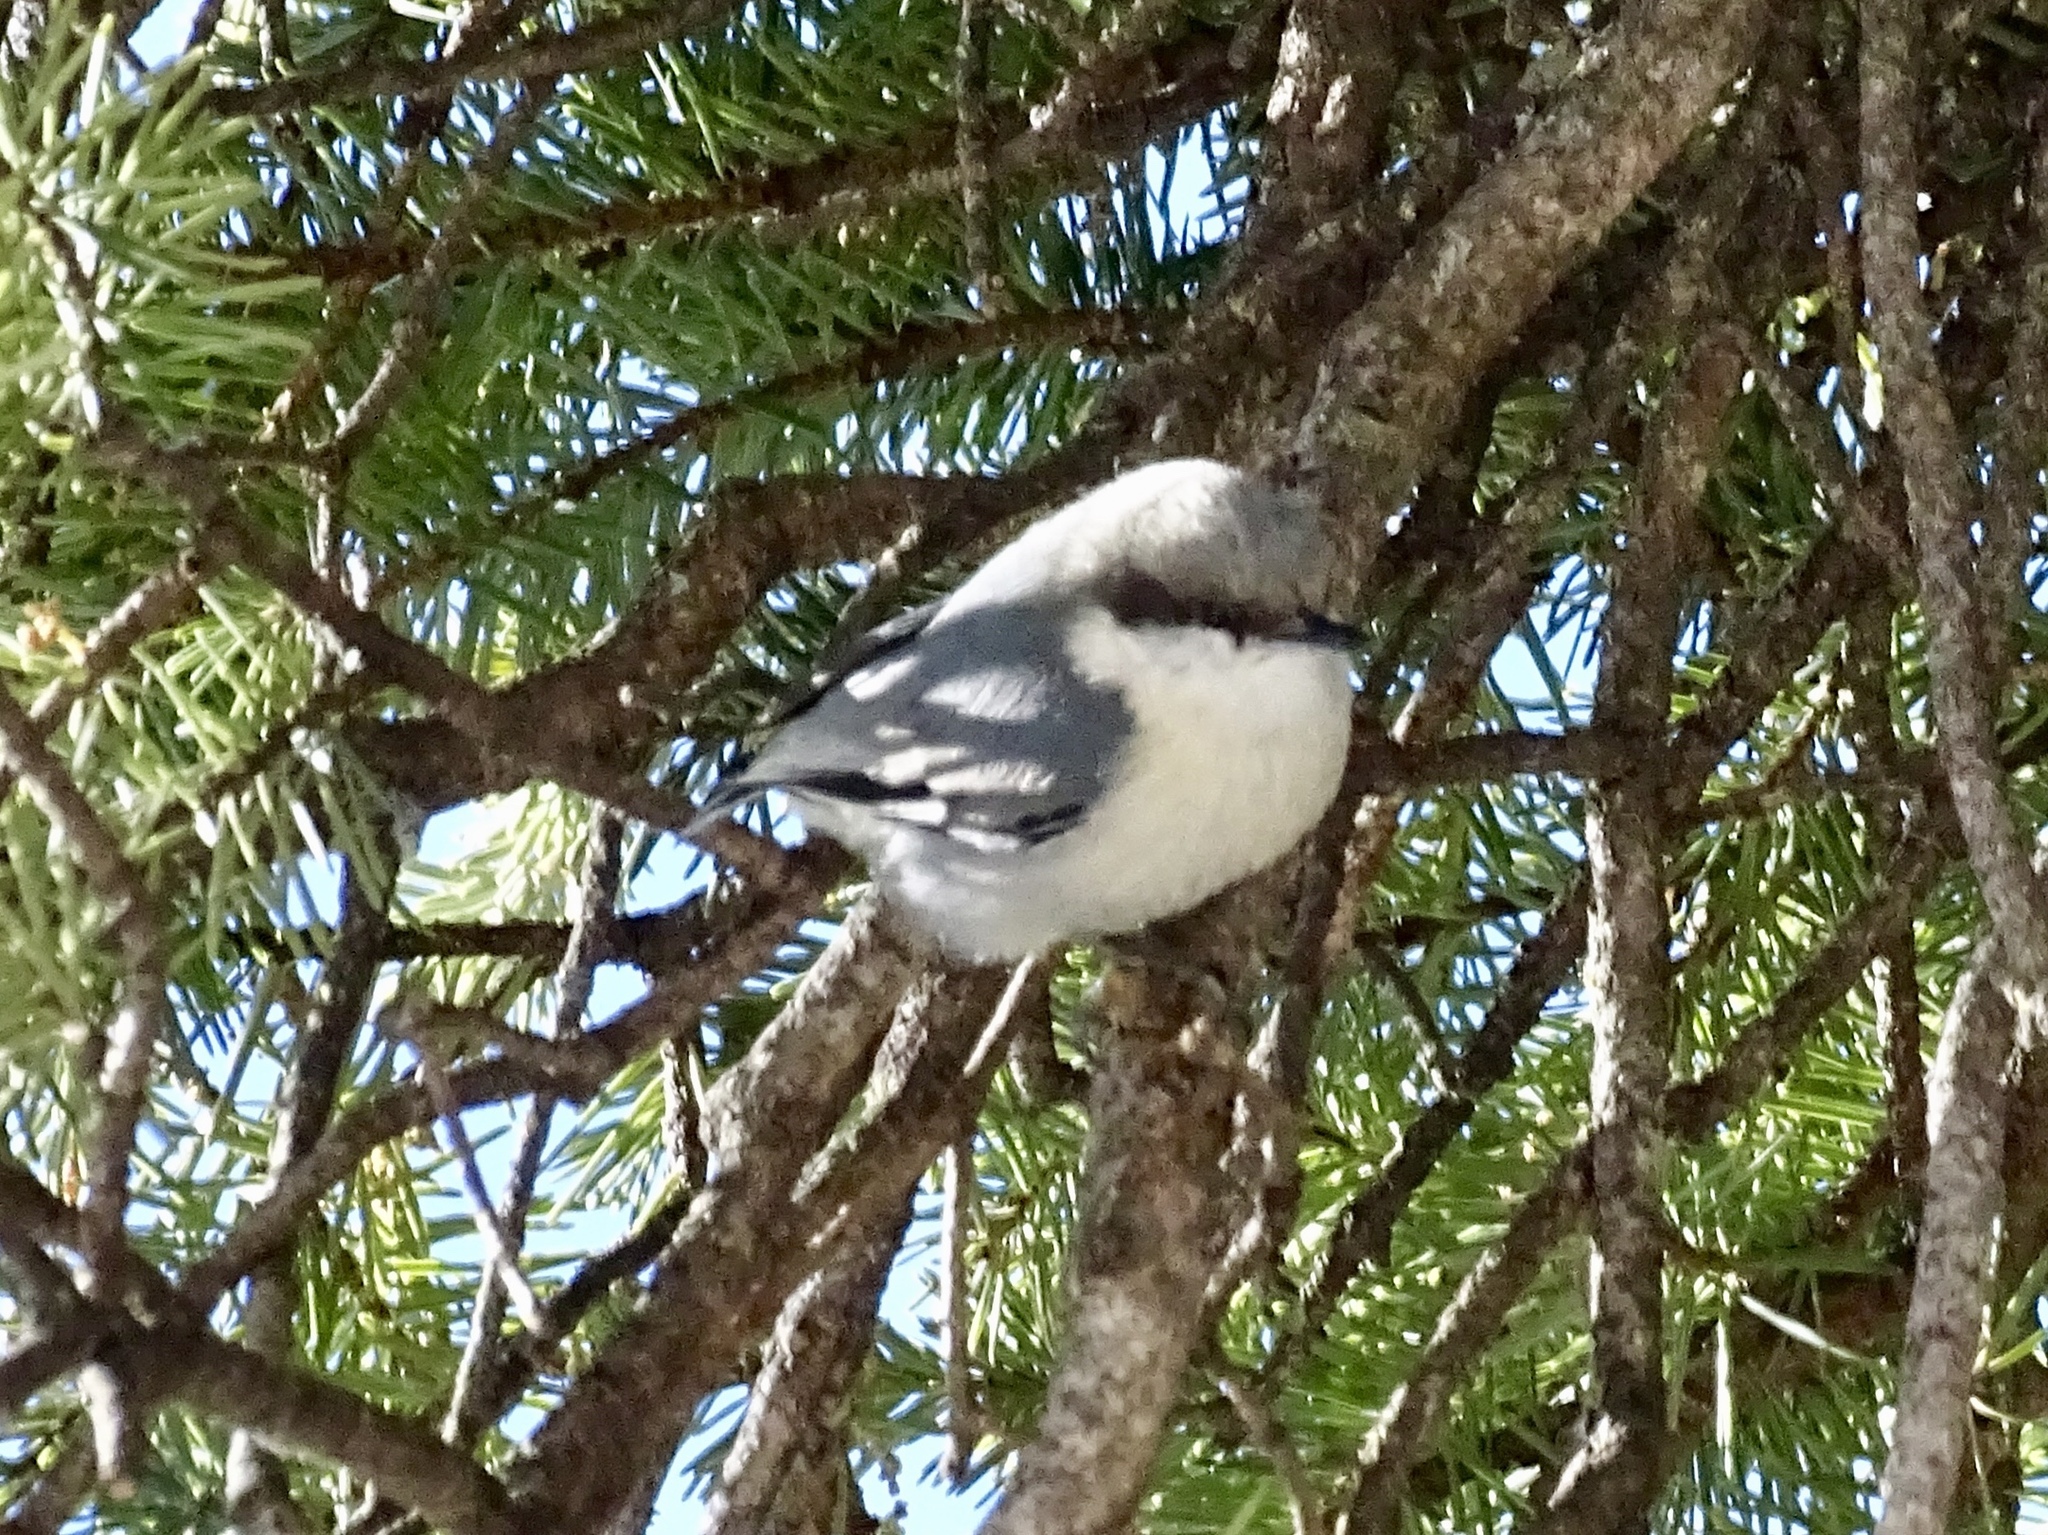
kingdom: Animalia
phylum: Chordata
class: Aves
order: Passeriformes
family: Sittidae
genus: Sitta
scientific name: Sitta pygmaea
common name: Pygmy nuthatch
